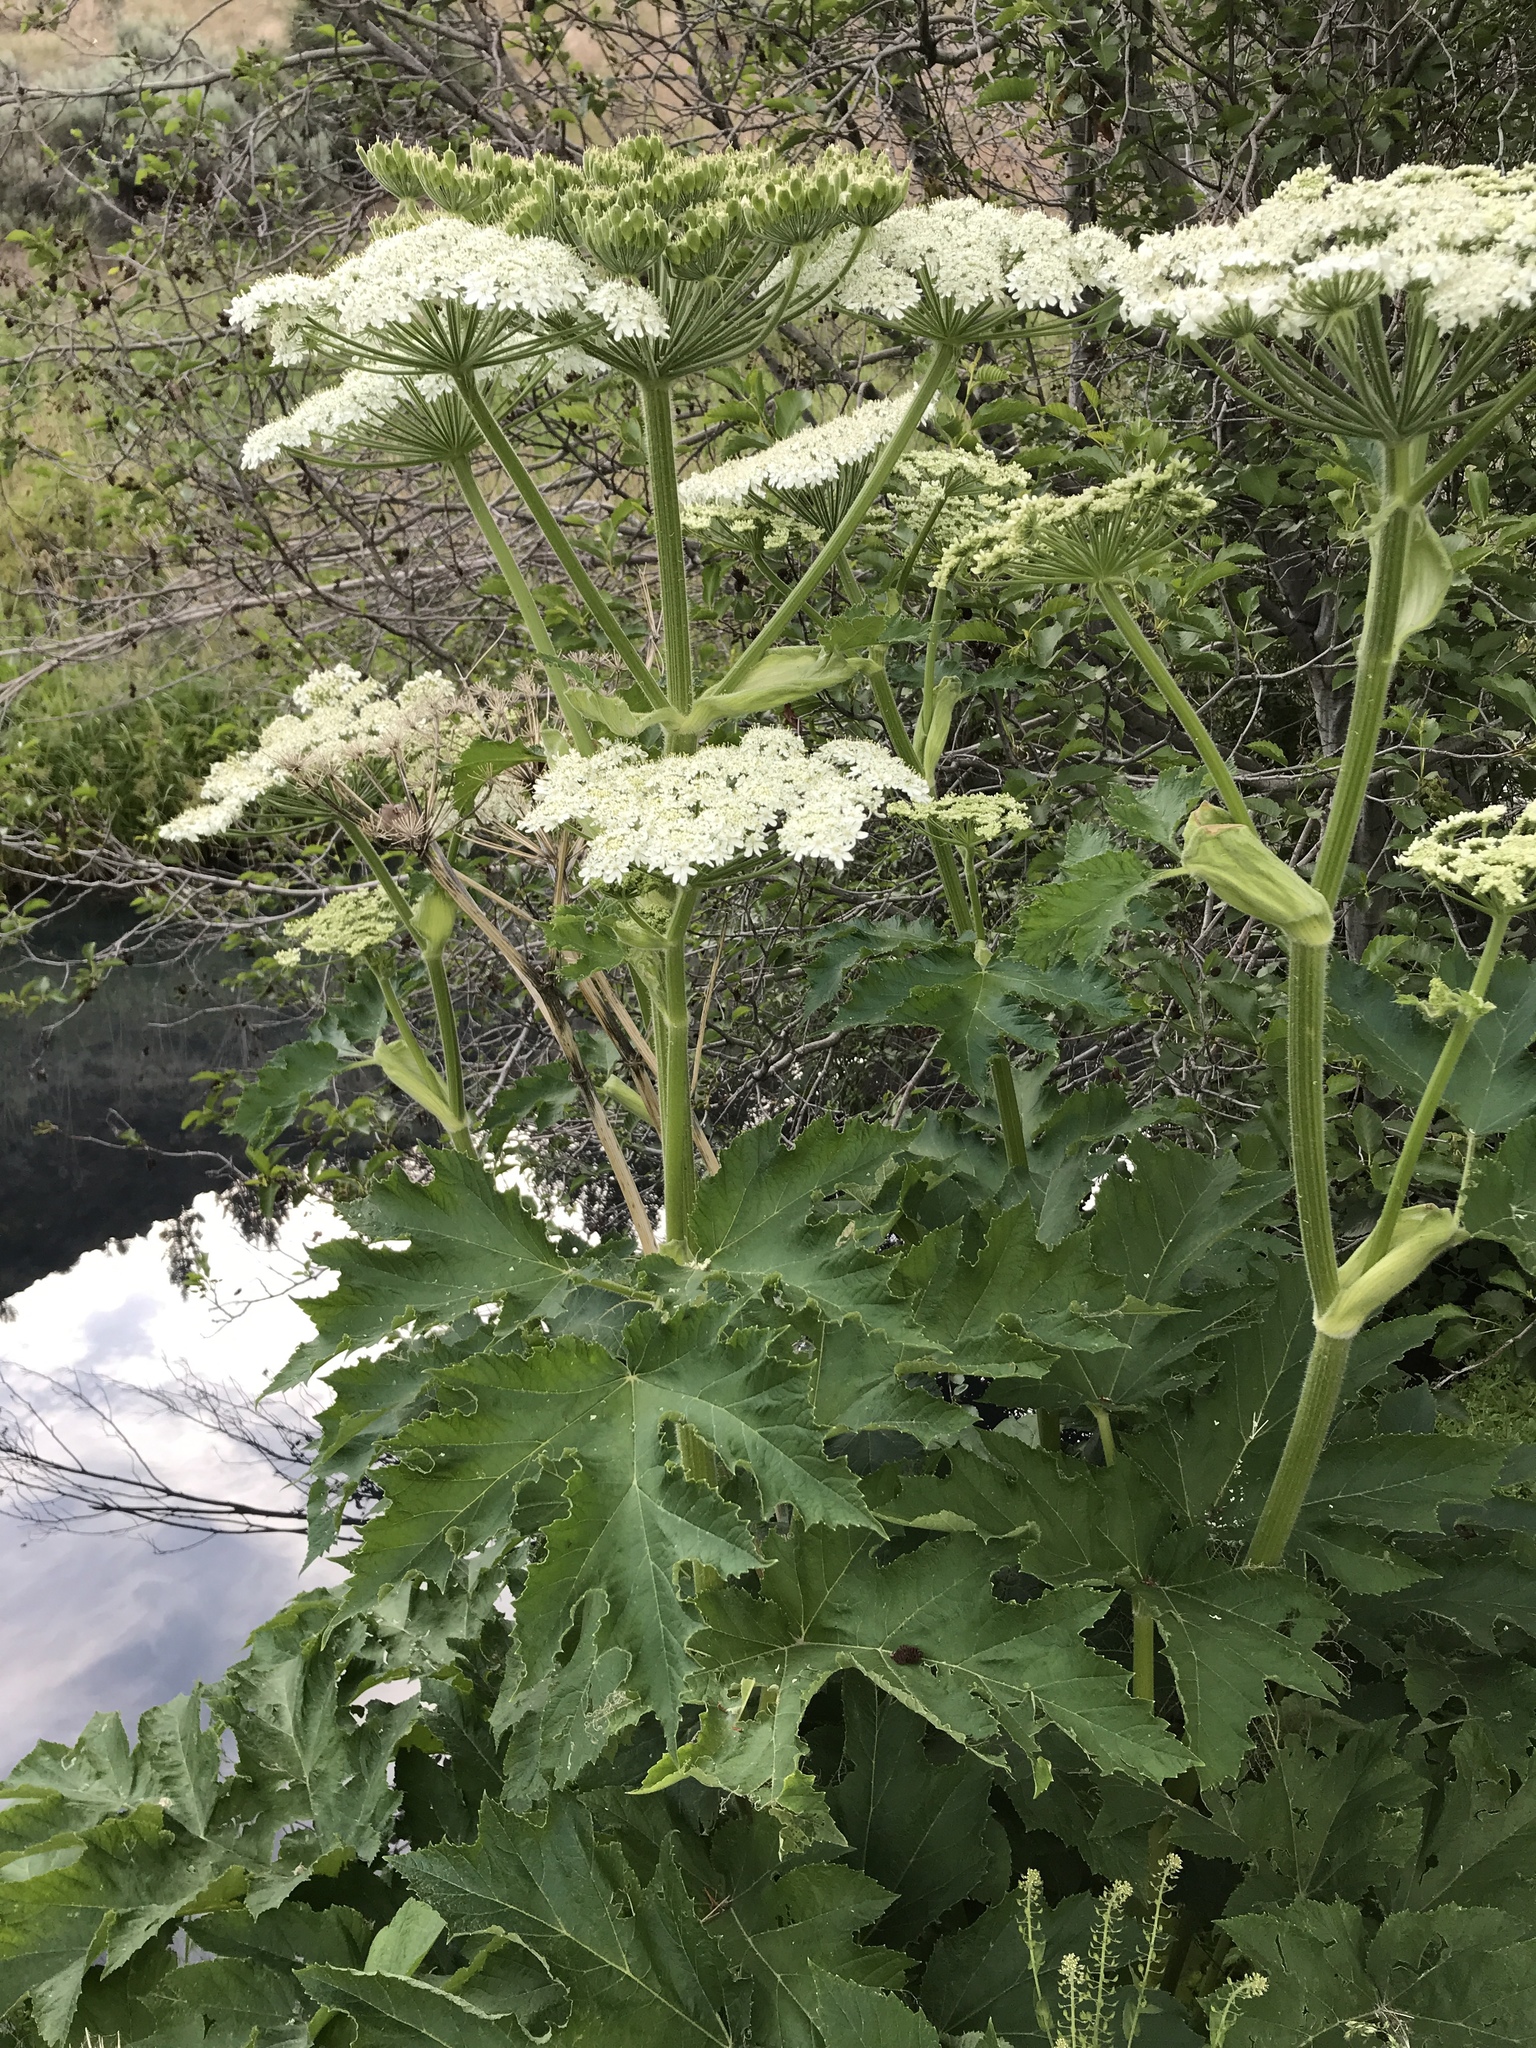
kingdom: Plantae
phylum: Tracheophyta
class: Magnoliopsida
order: Apiales
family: Apiaceae
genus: Heracleum
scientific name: Heracleum maximum
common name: American cow parsnip
